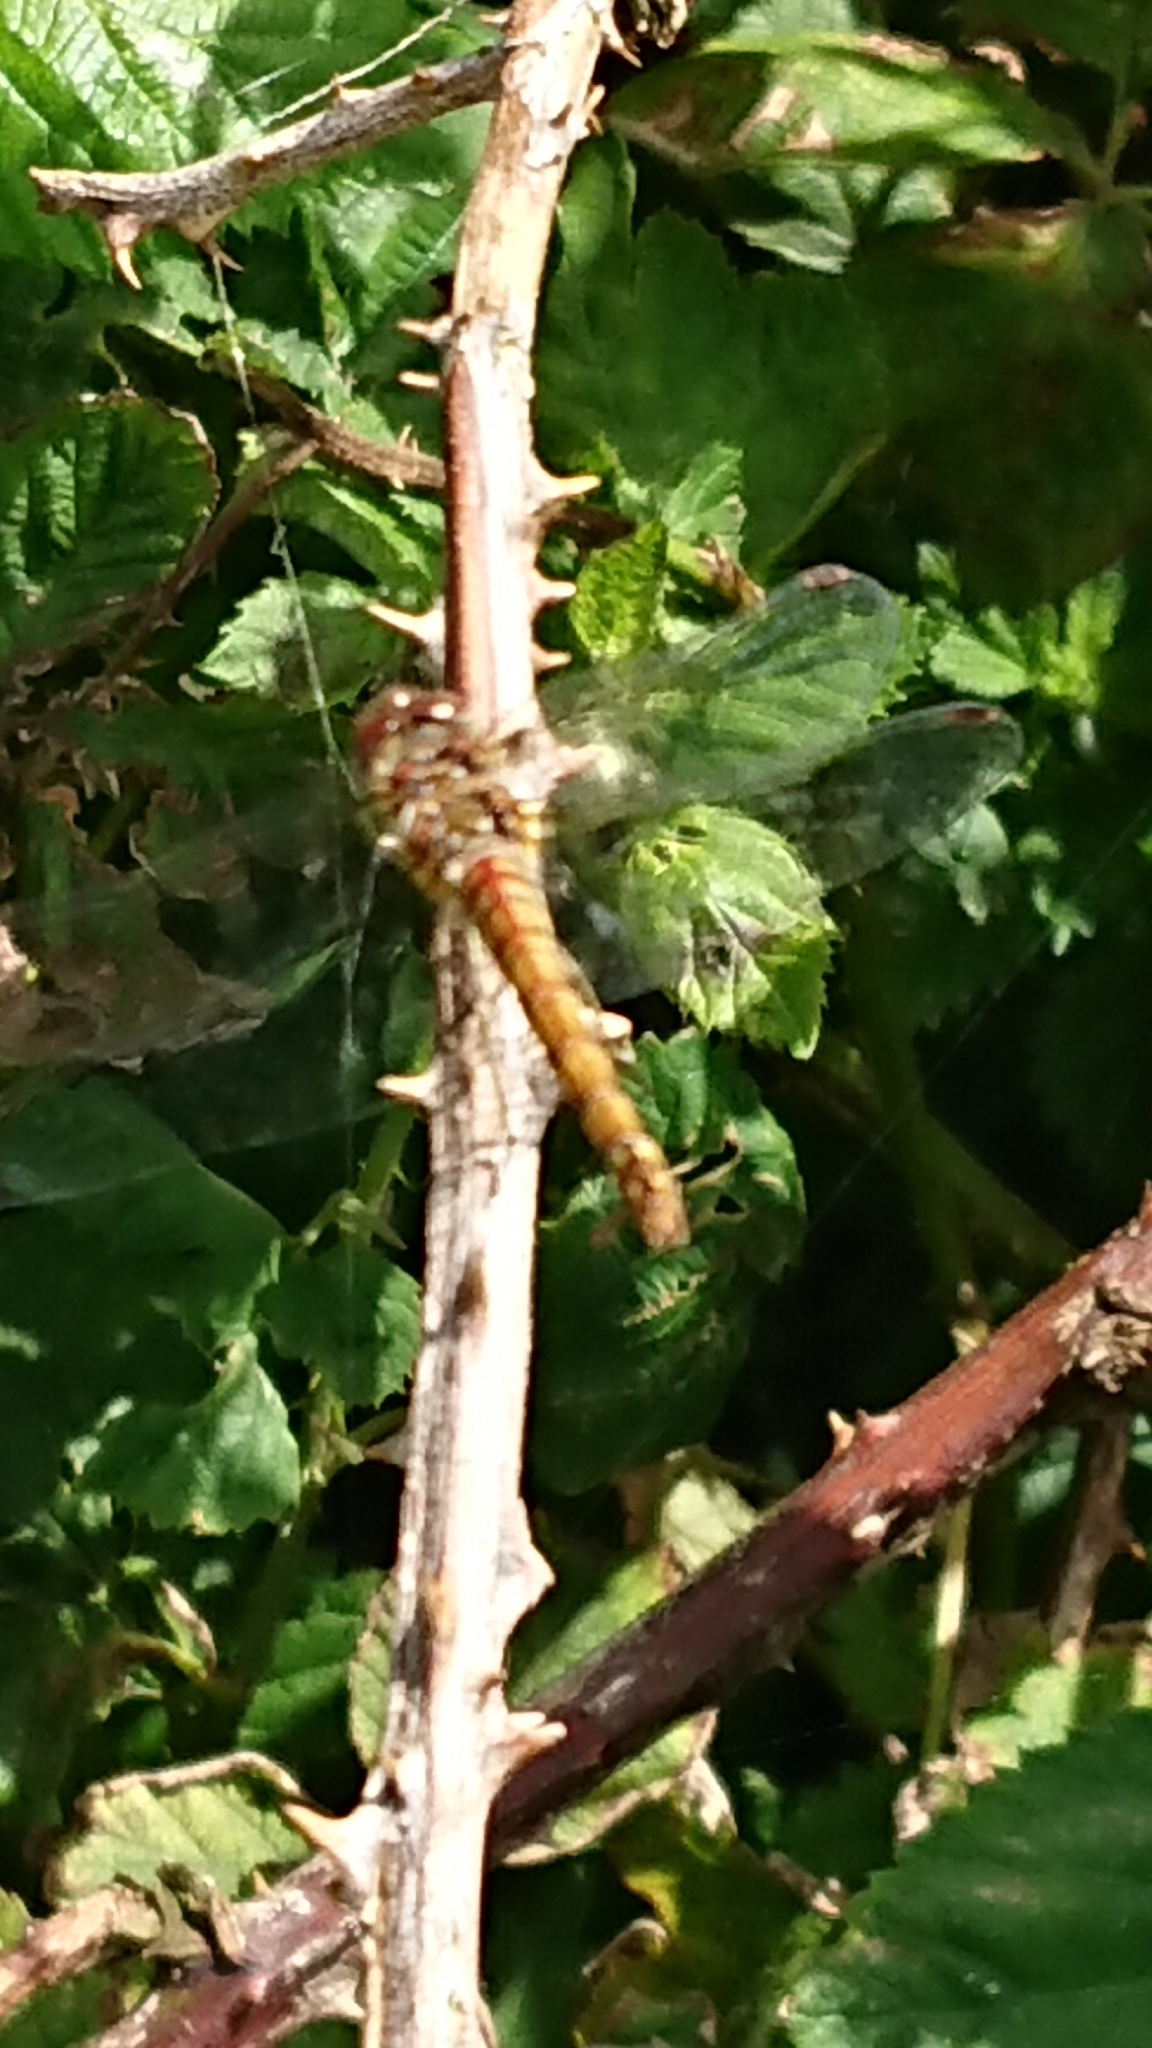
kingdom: Animalia
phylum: Arthropoda
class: Insecta
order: Odonata
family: Libellulidae
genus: Sympetrum
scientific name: Sympetrum striolatum
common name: Common darter
